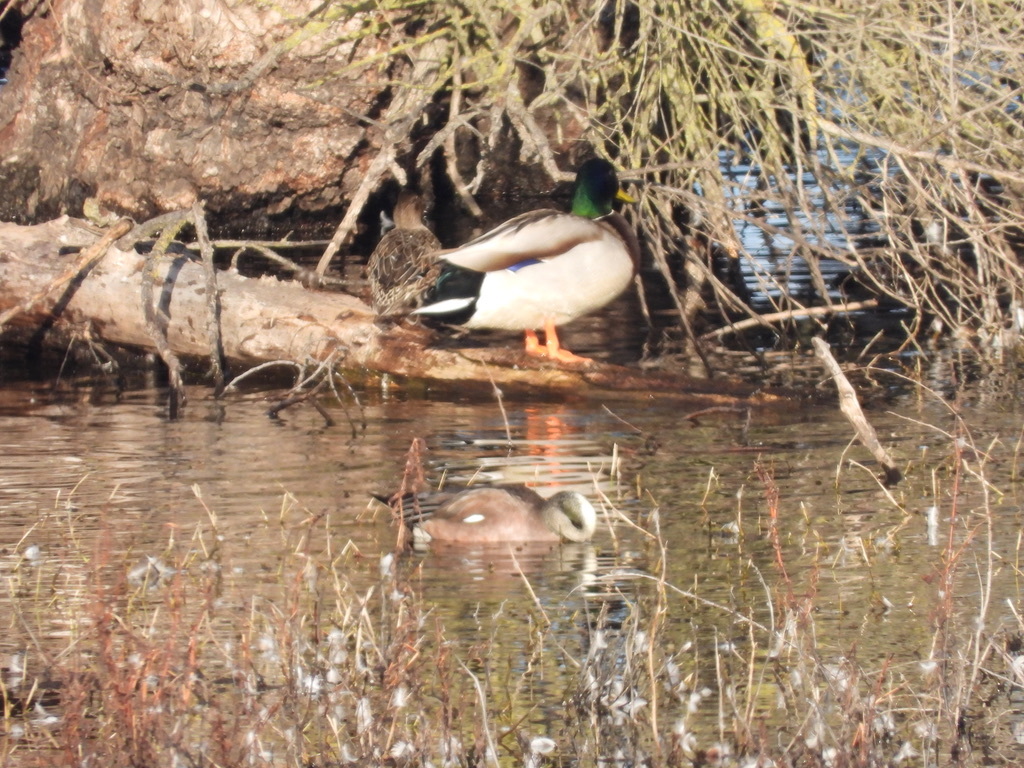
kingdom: Animalia
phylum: Chordata
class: Aves
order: Anseriformes
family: Anatidae
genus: Anas
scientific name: Anas platyrhynchos
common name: Mallard
